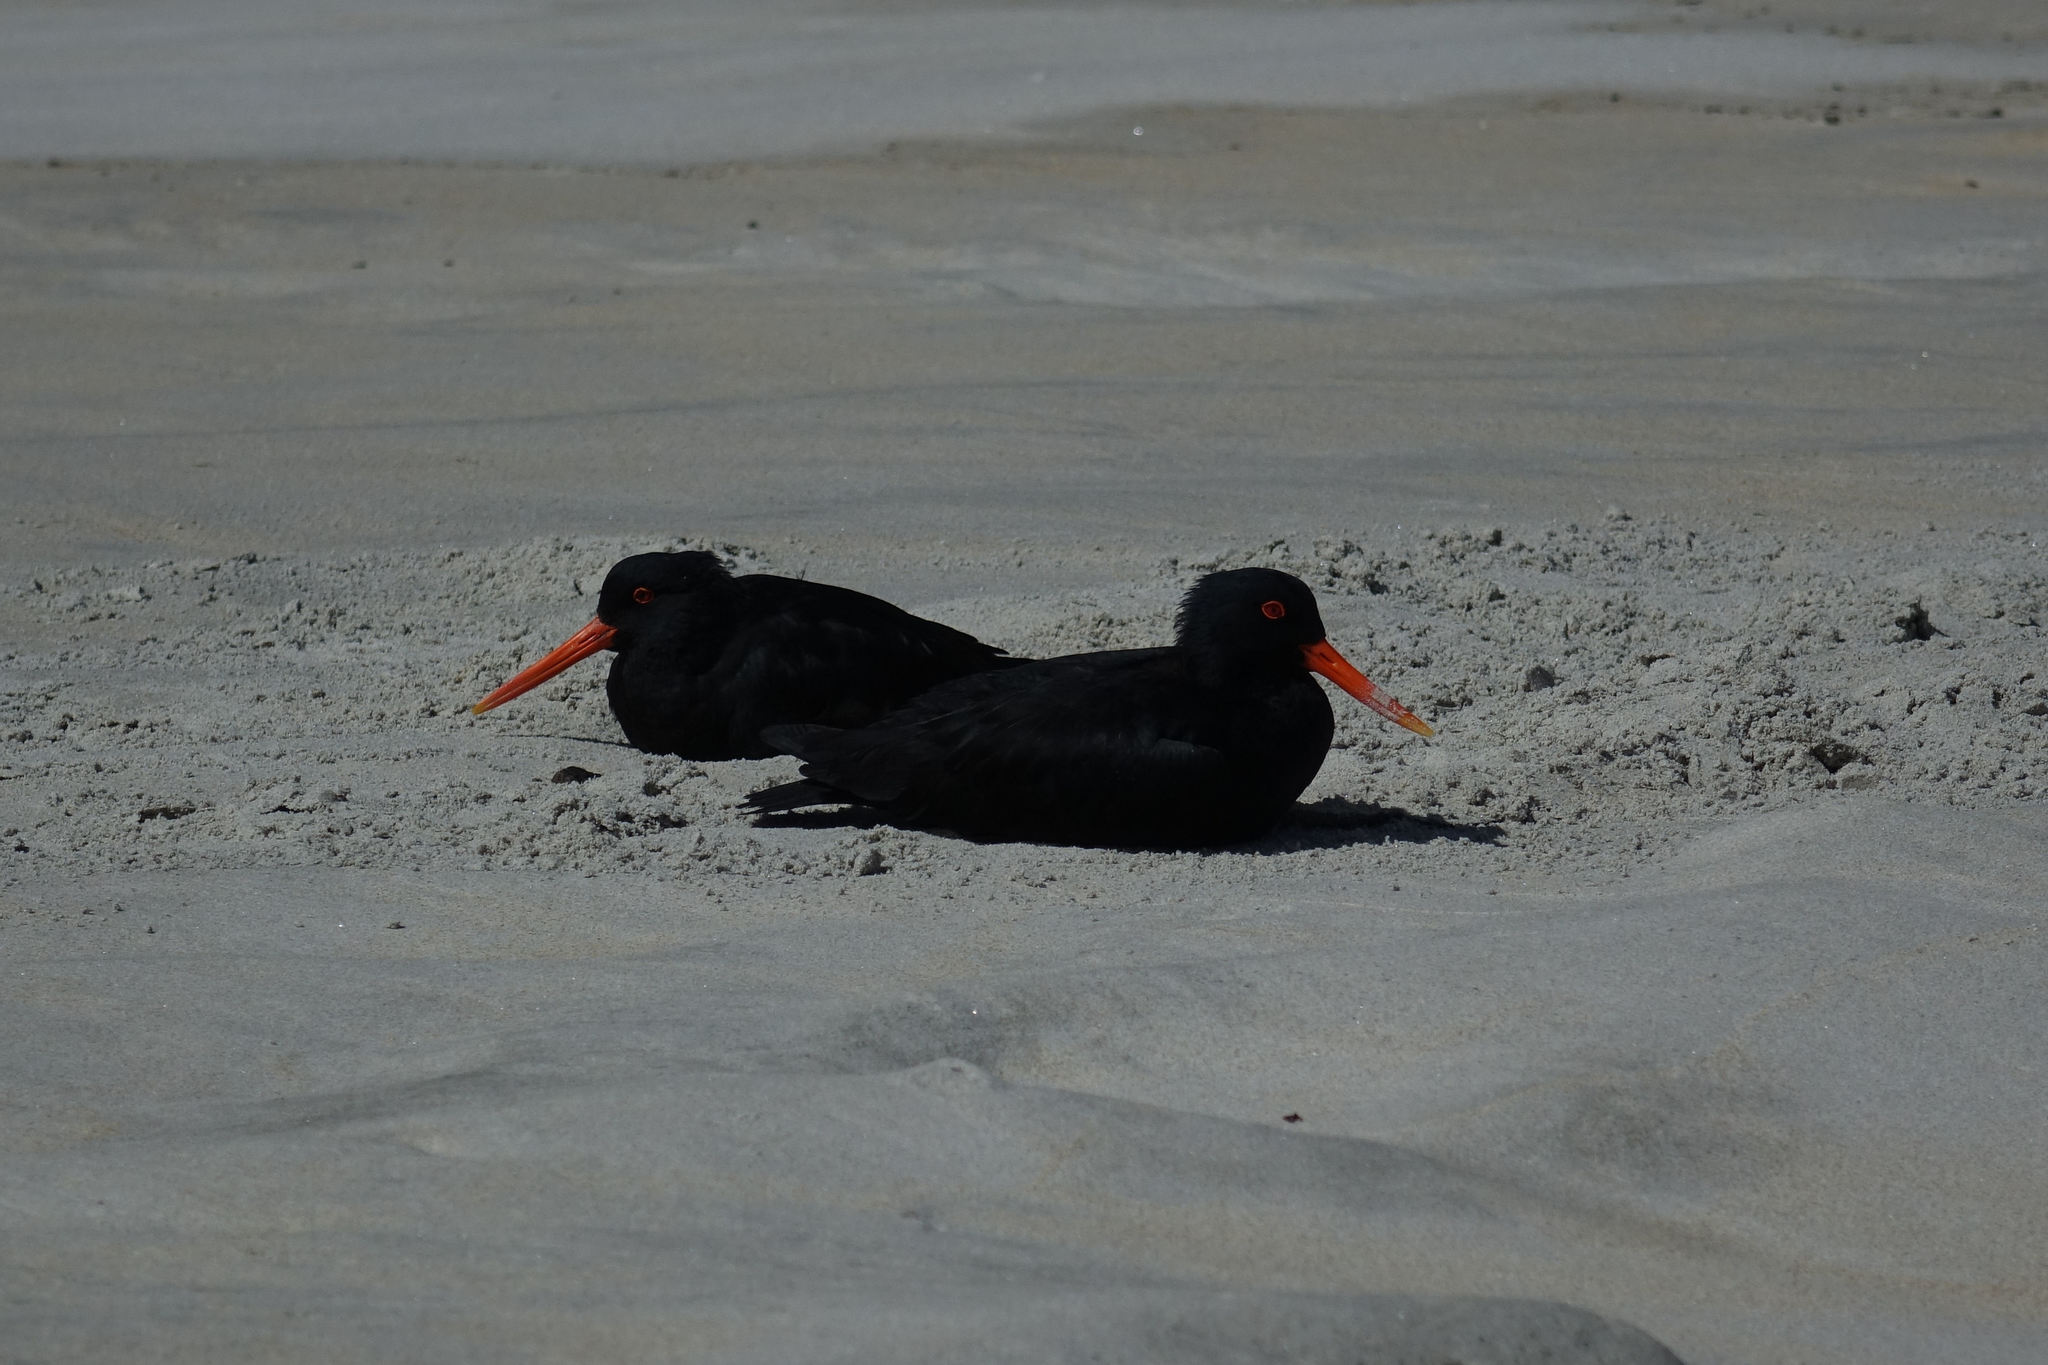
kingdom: Animalia
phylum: Chordata
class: Aves
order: Charadriiformes
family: Haematopodidae
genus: Haematopus
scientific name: Haematopus unicolor
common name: Variable oystercatcher
